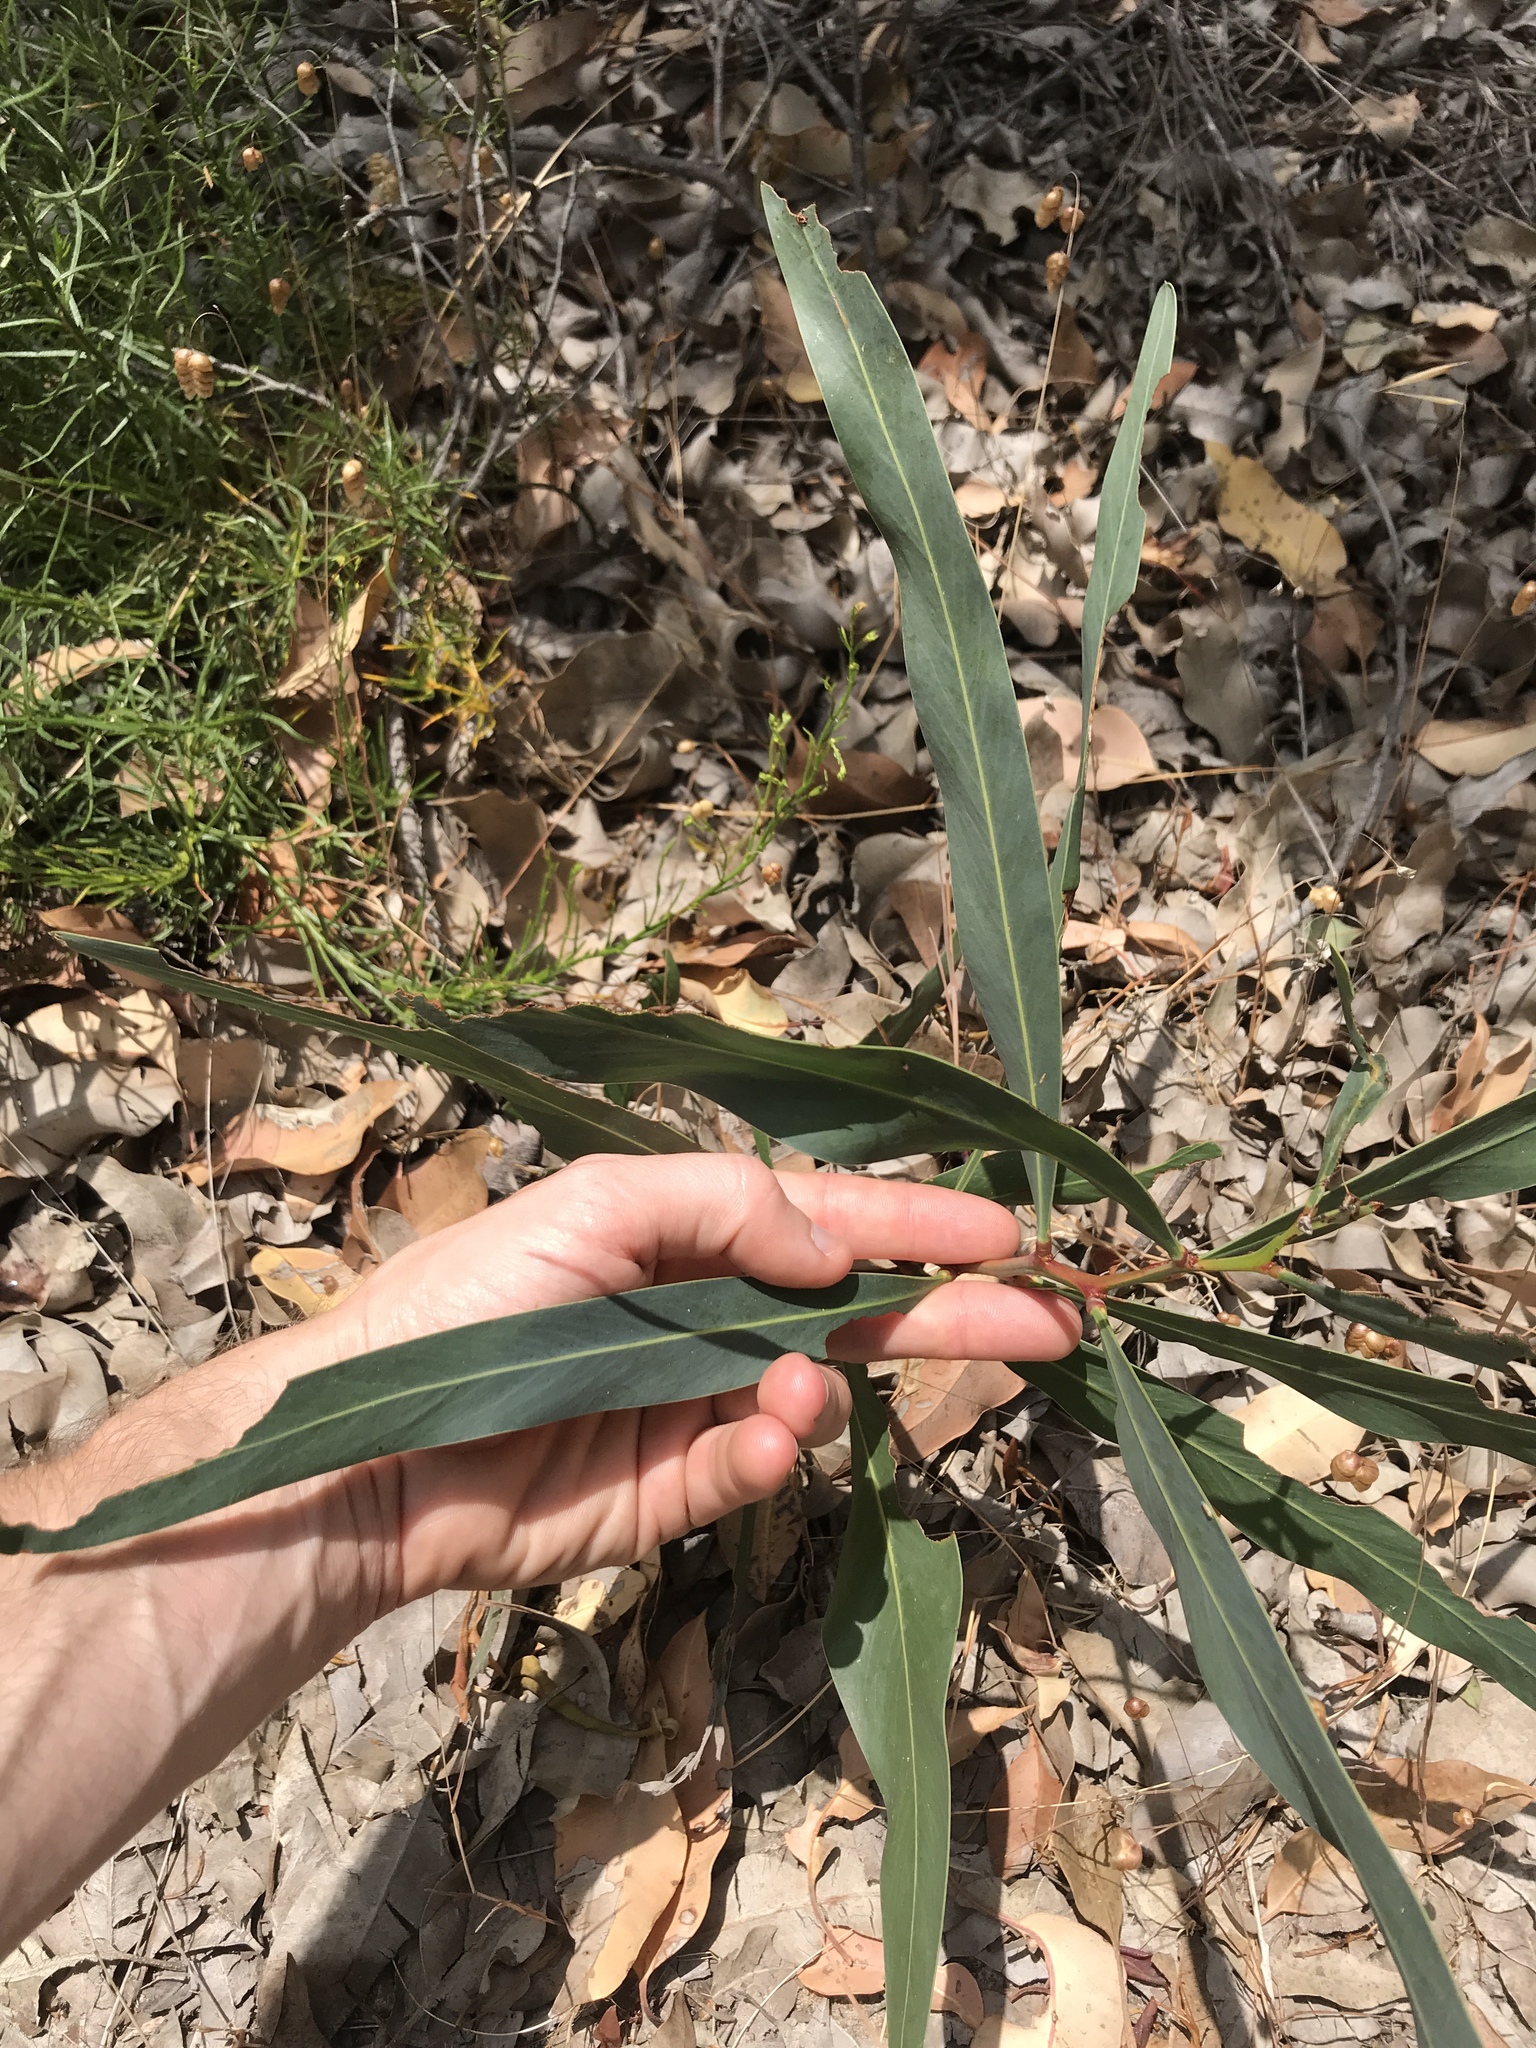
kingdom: Plantae
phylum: Tracheophyta
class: Magnoliopsida
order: Fabales
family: Fabaceae
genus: Acacia
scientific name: Acacia saligna
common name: Orange wattle
